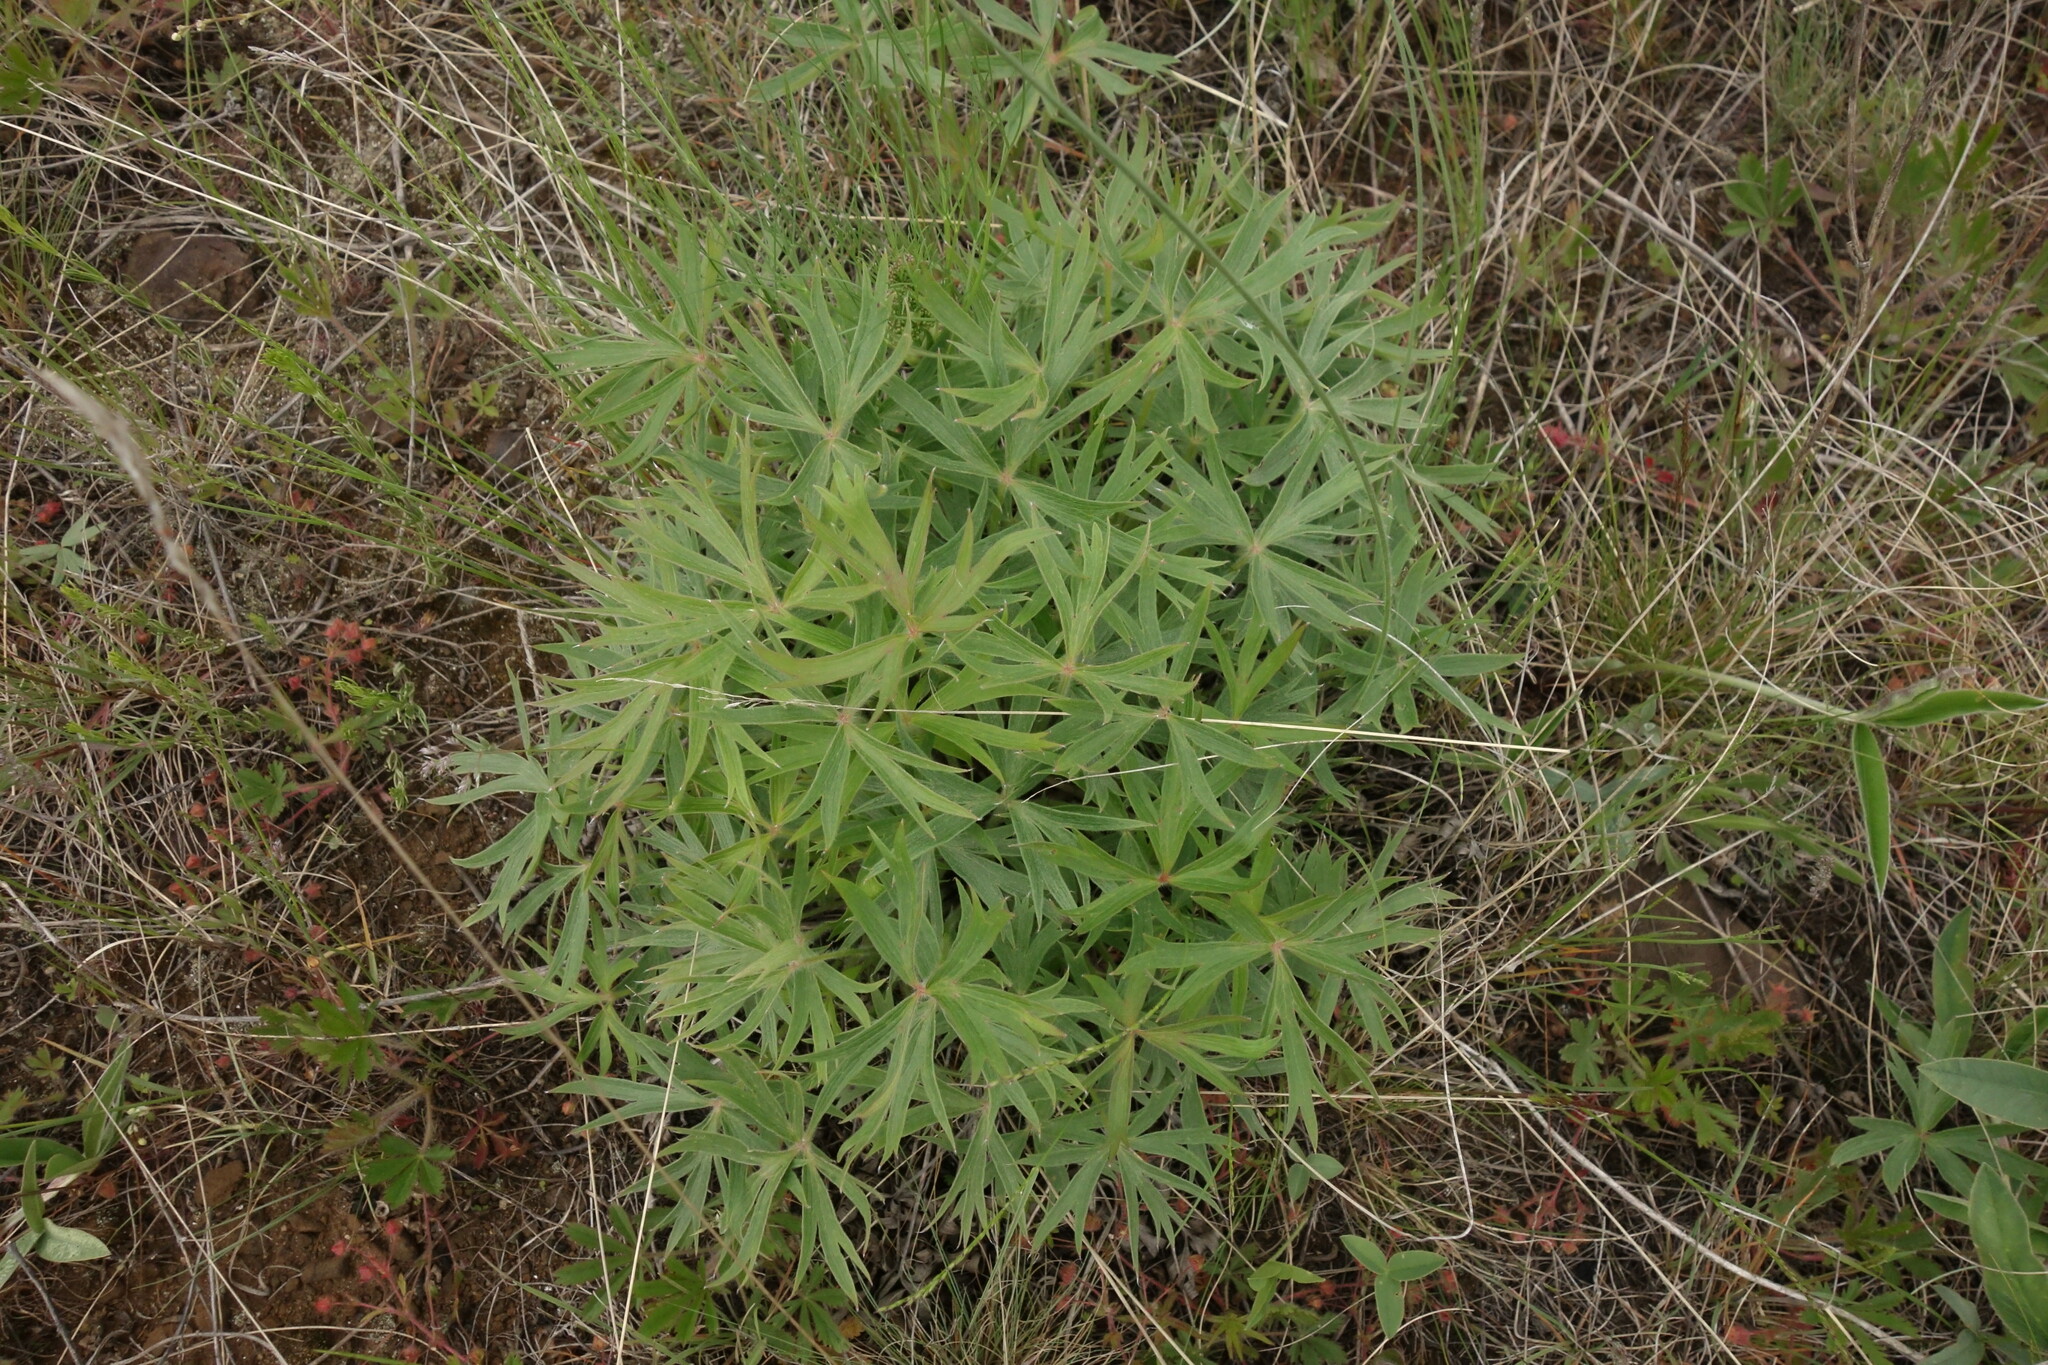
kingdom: Plantae
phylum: Tracheophyta
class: Magnoliopsida
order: Ranunculales
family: Ranunculaceae
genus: Pulsatilla
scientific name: Pulsatilla patens
